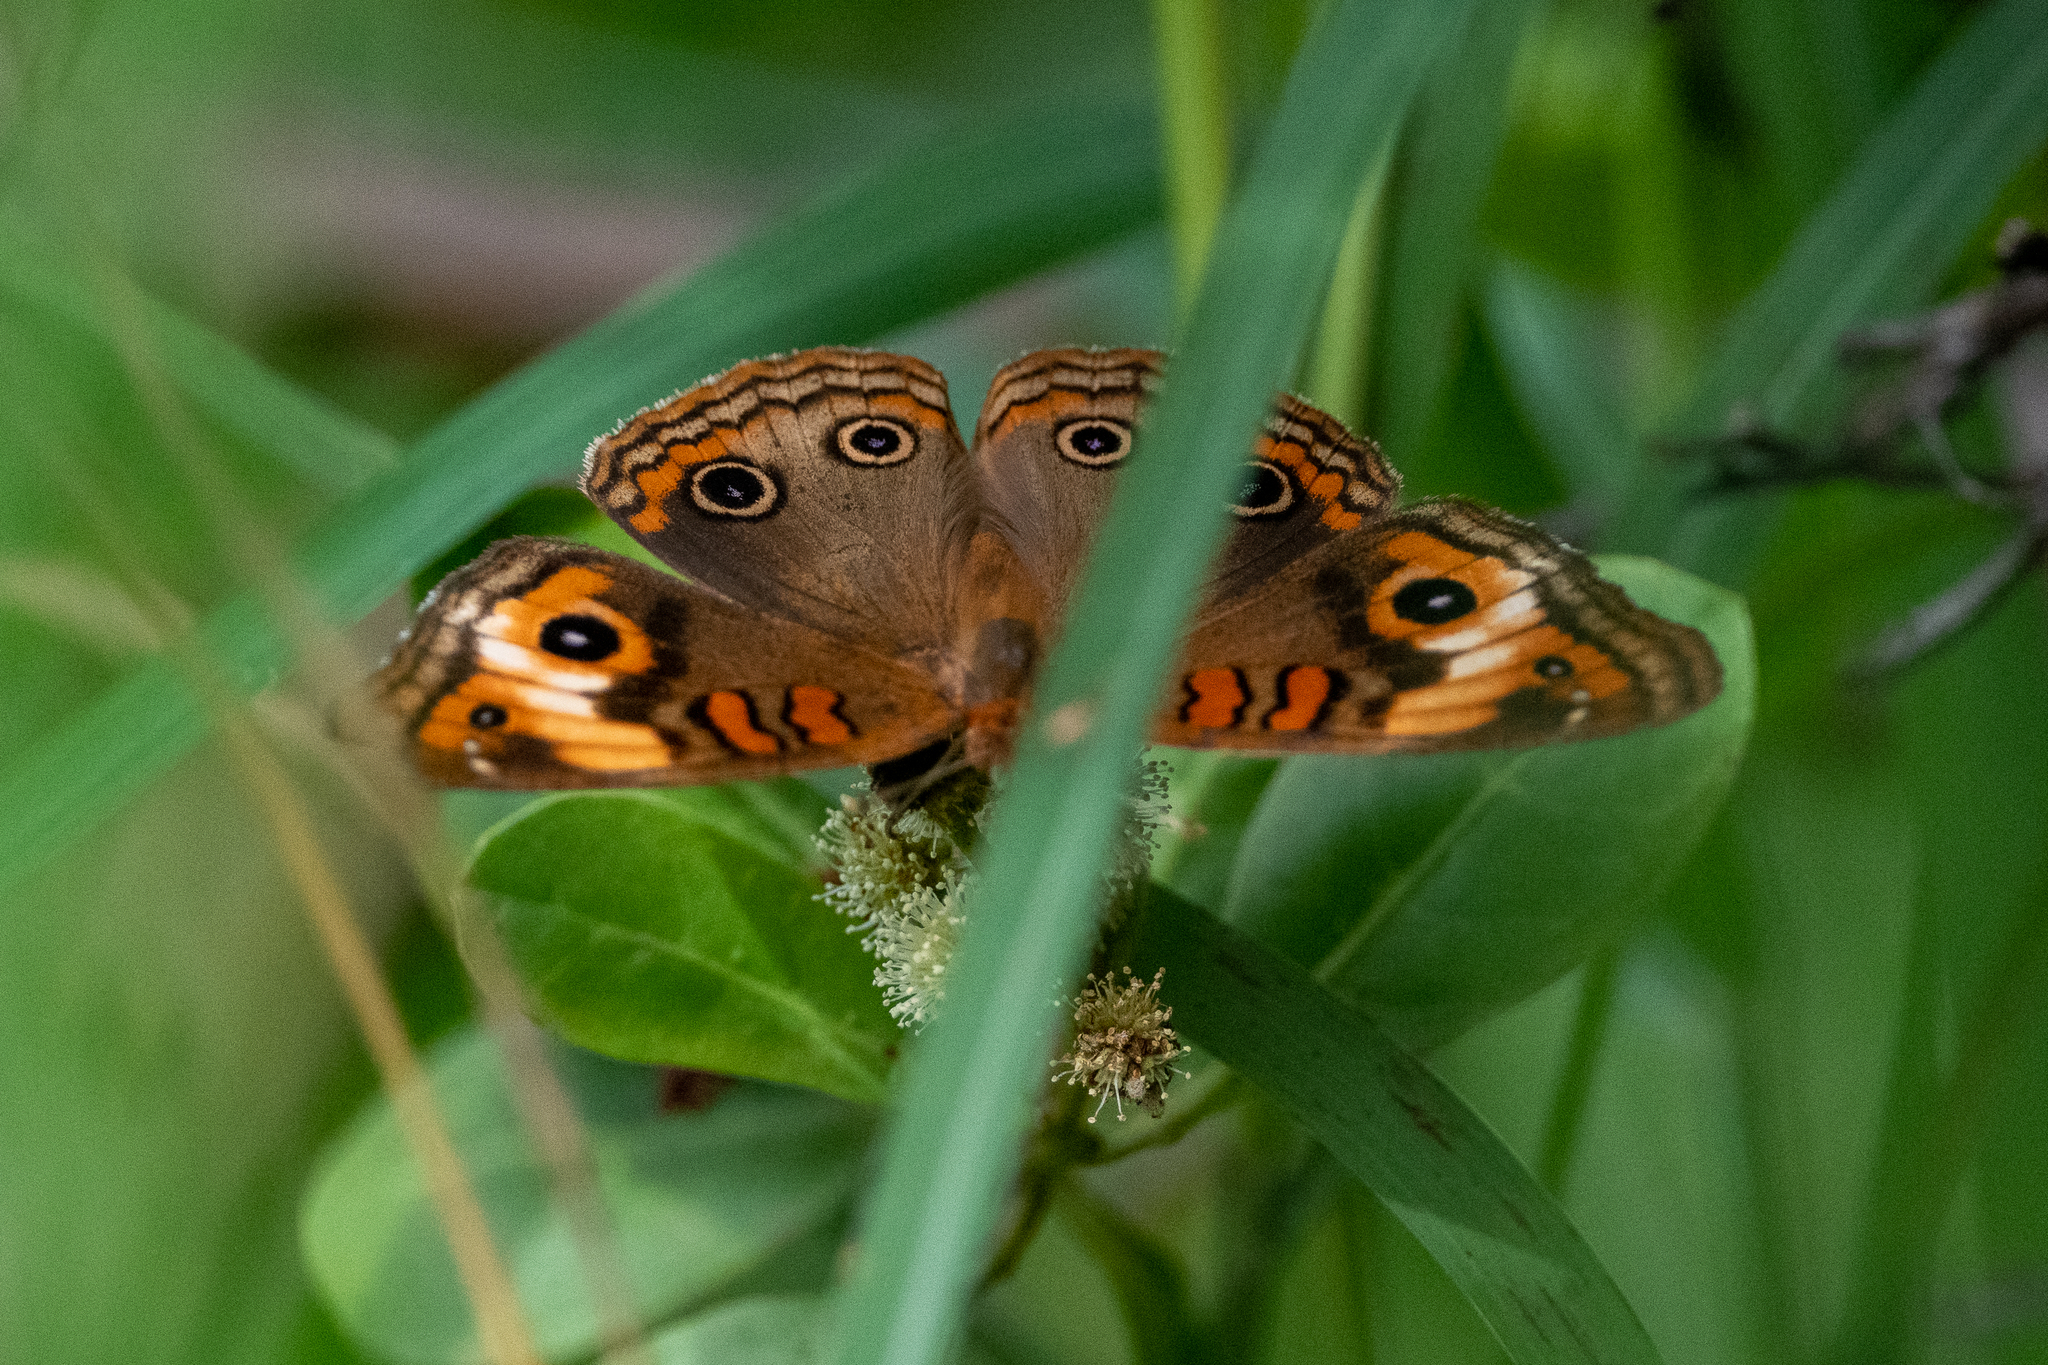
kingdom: Animalia
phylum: Arthropoda
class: Insecta
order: Lepidoptera
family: Nymphalidae
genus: Junonia
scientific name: Junonia lavinia
